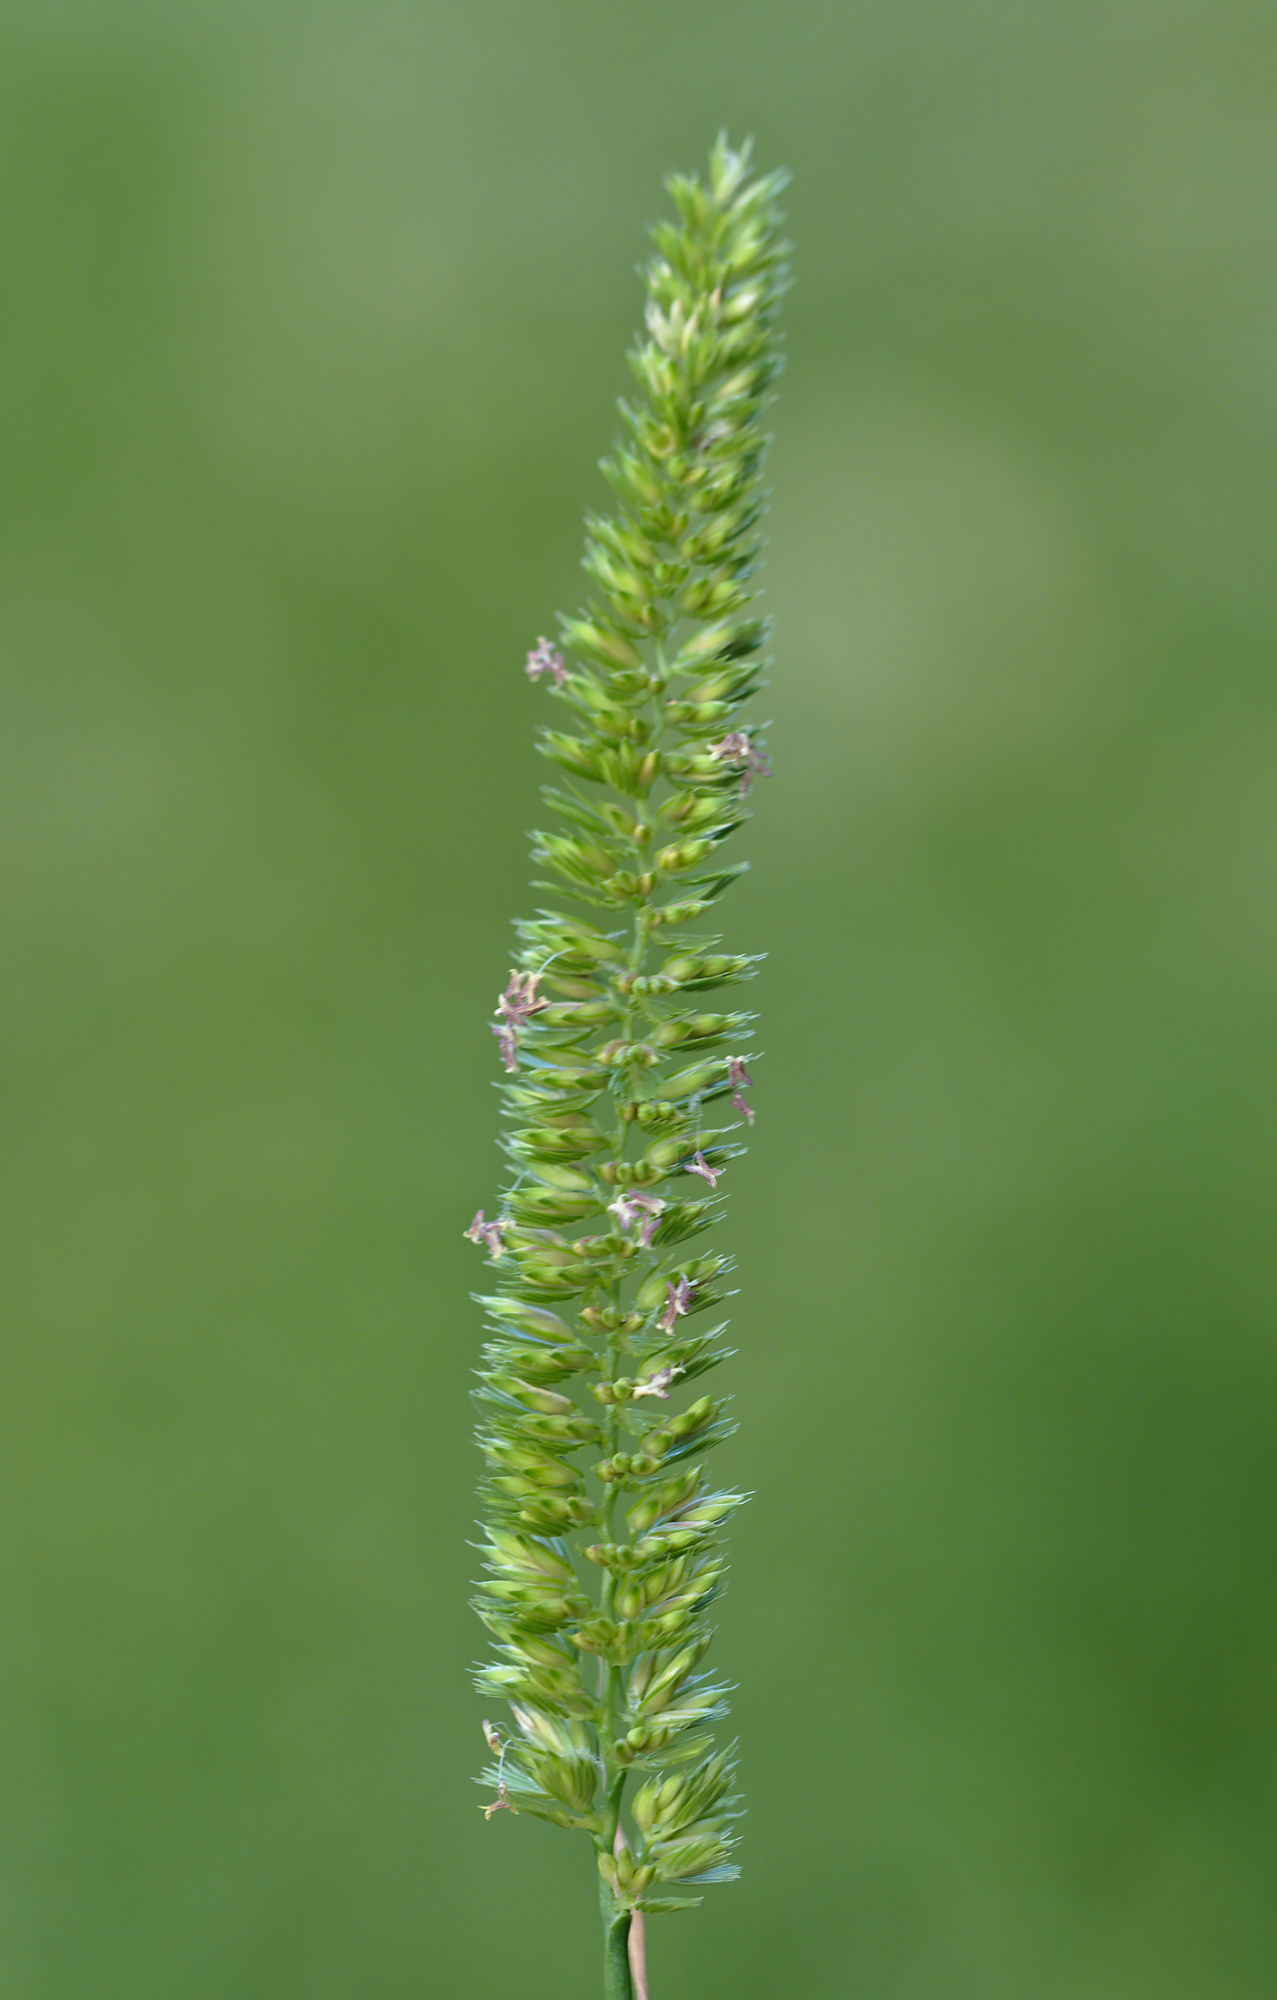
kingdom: Plantae
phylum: Tracheophyta
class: Liliopsida
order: Poales
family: Poaceae
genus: Cynosurus
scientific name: Cynosurus cristatus
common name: Crested dog's-tail
